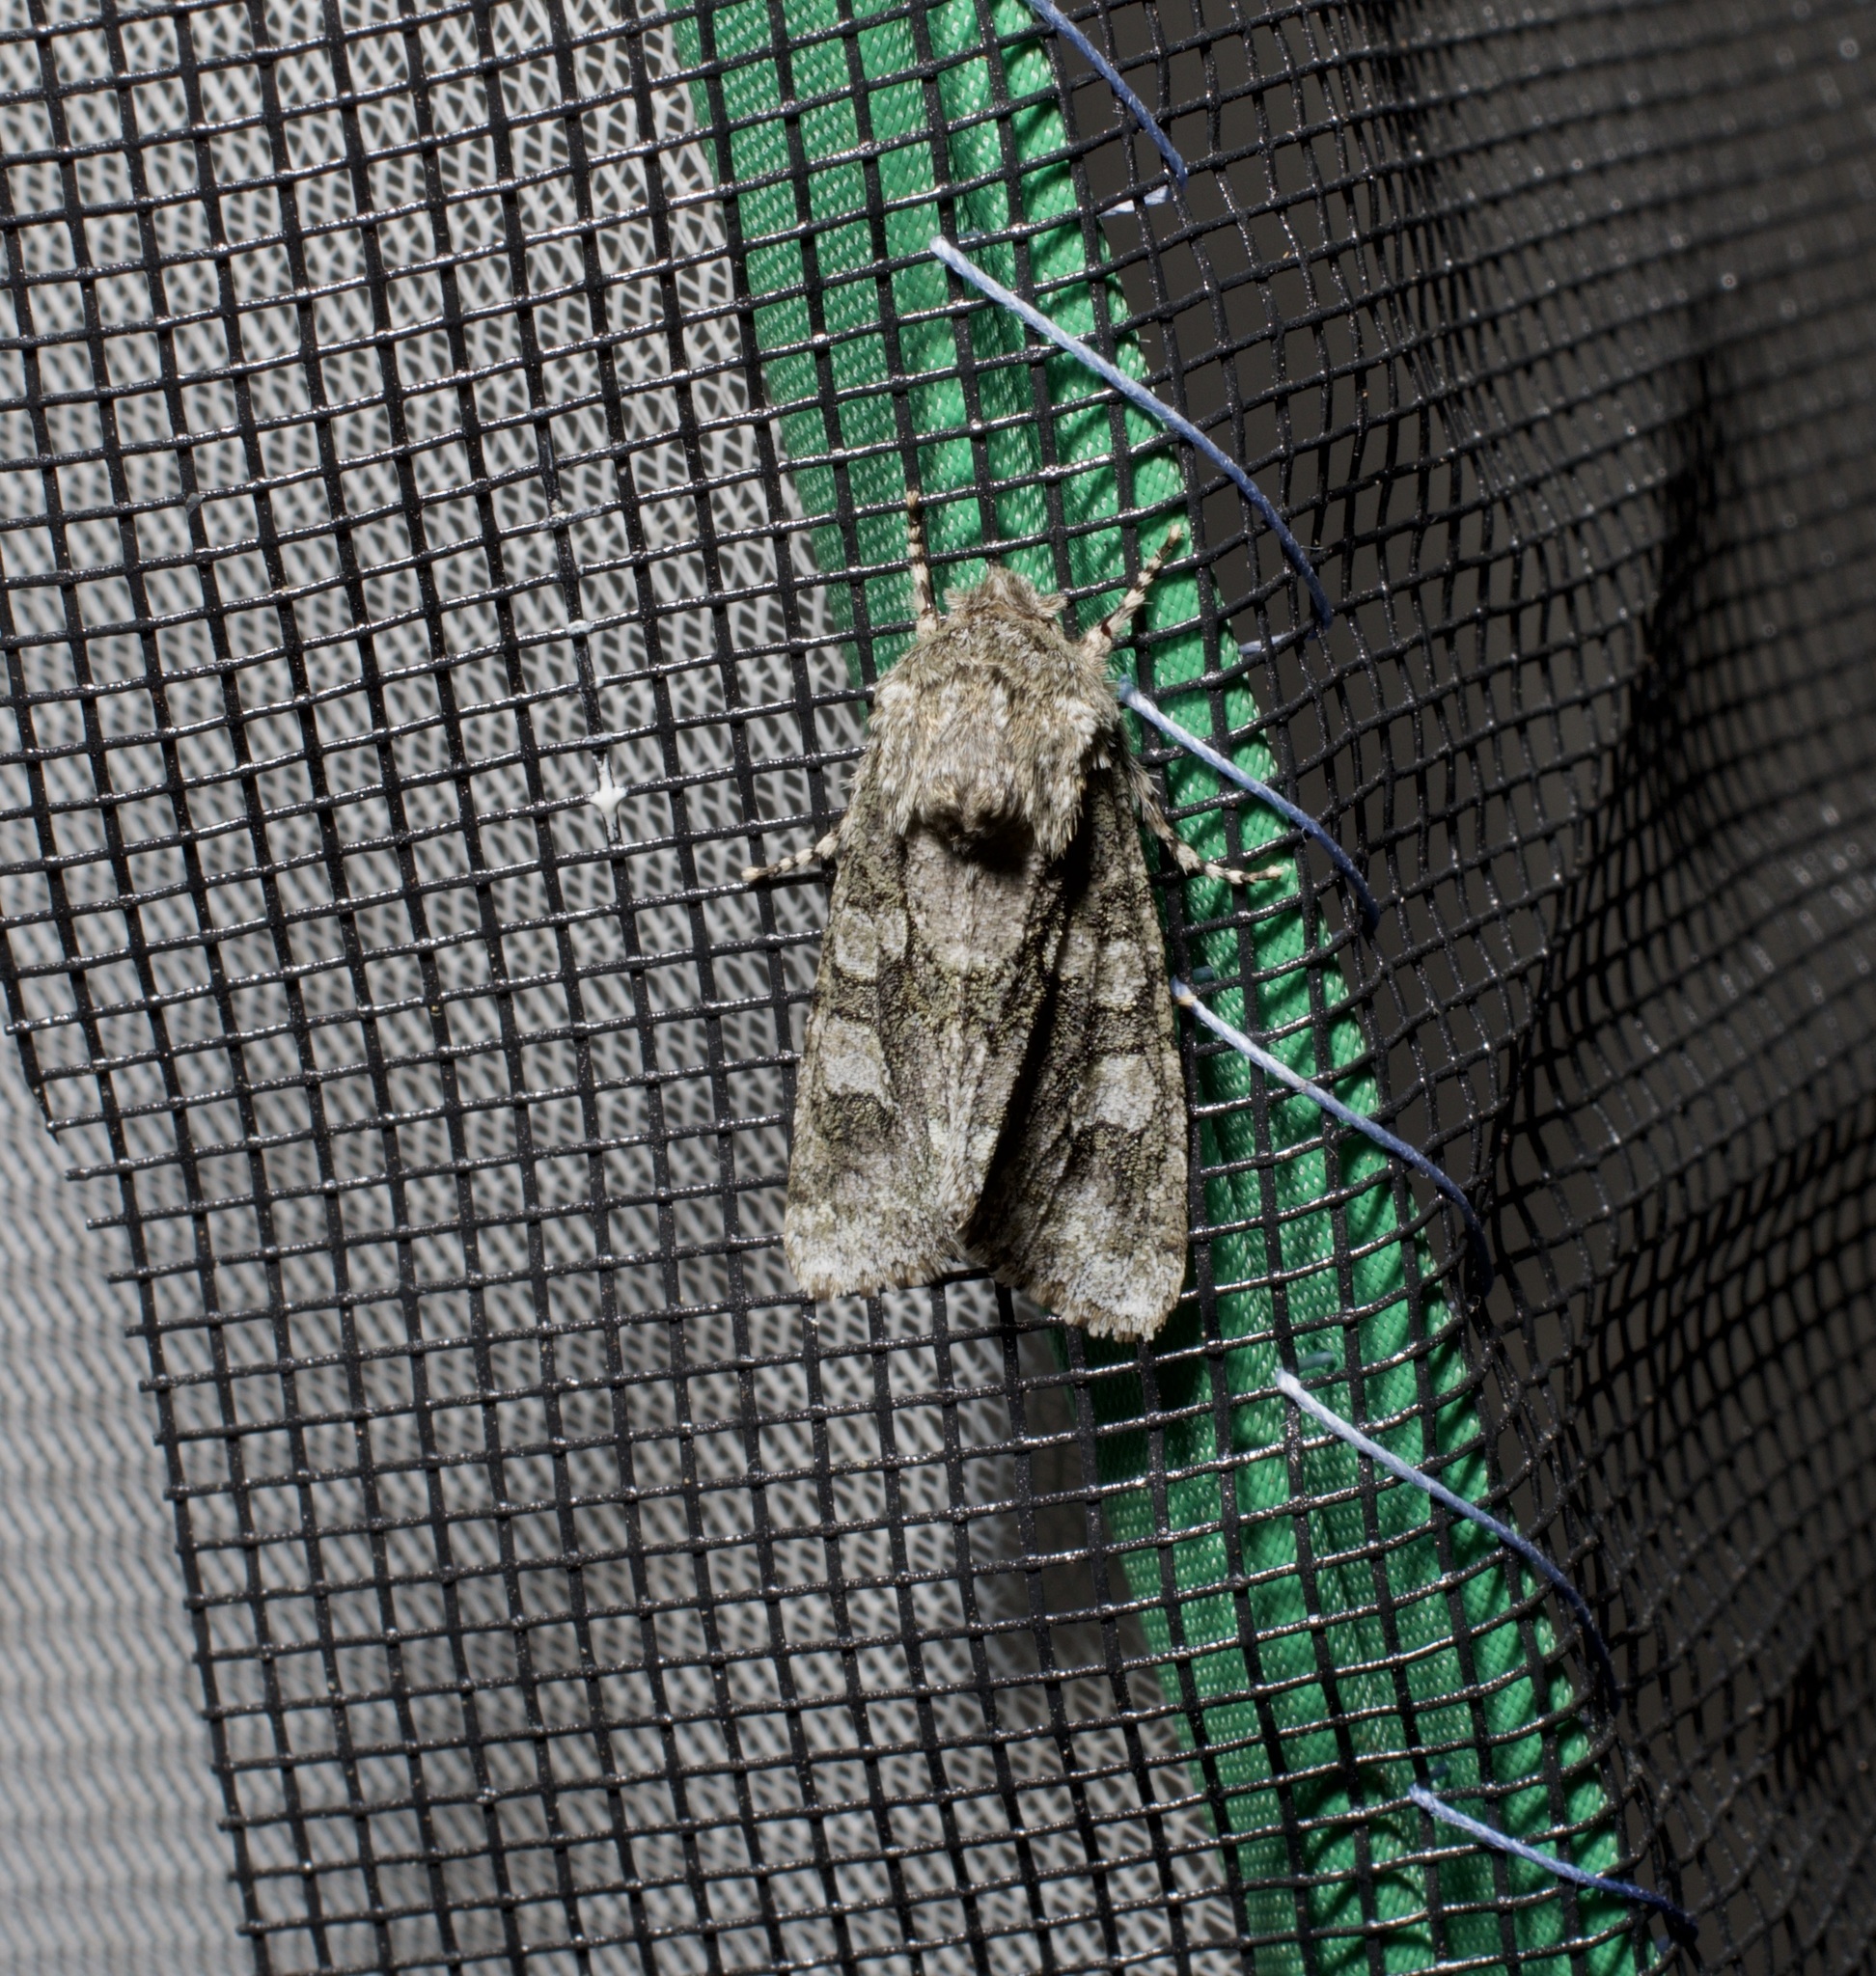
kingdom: Animalia
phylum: Arthropoda
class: Insecta
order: Lepidoptera
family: Noctuidae
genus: Psaphida
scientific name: Psaphida resumens
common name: Figure-eight sallow
